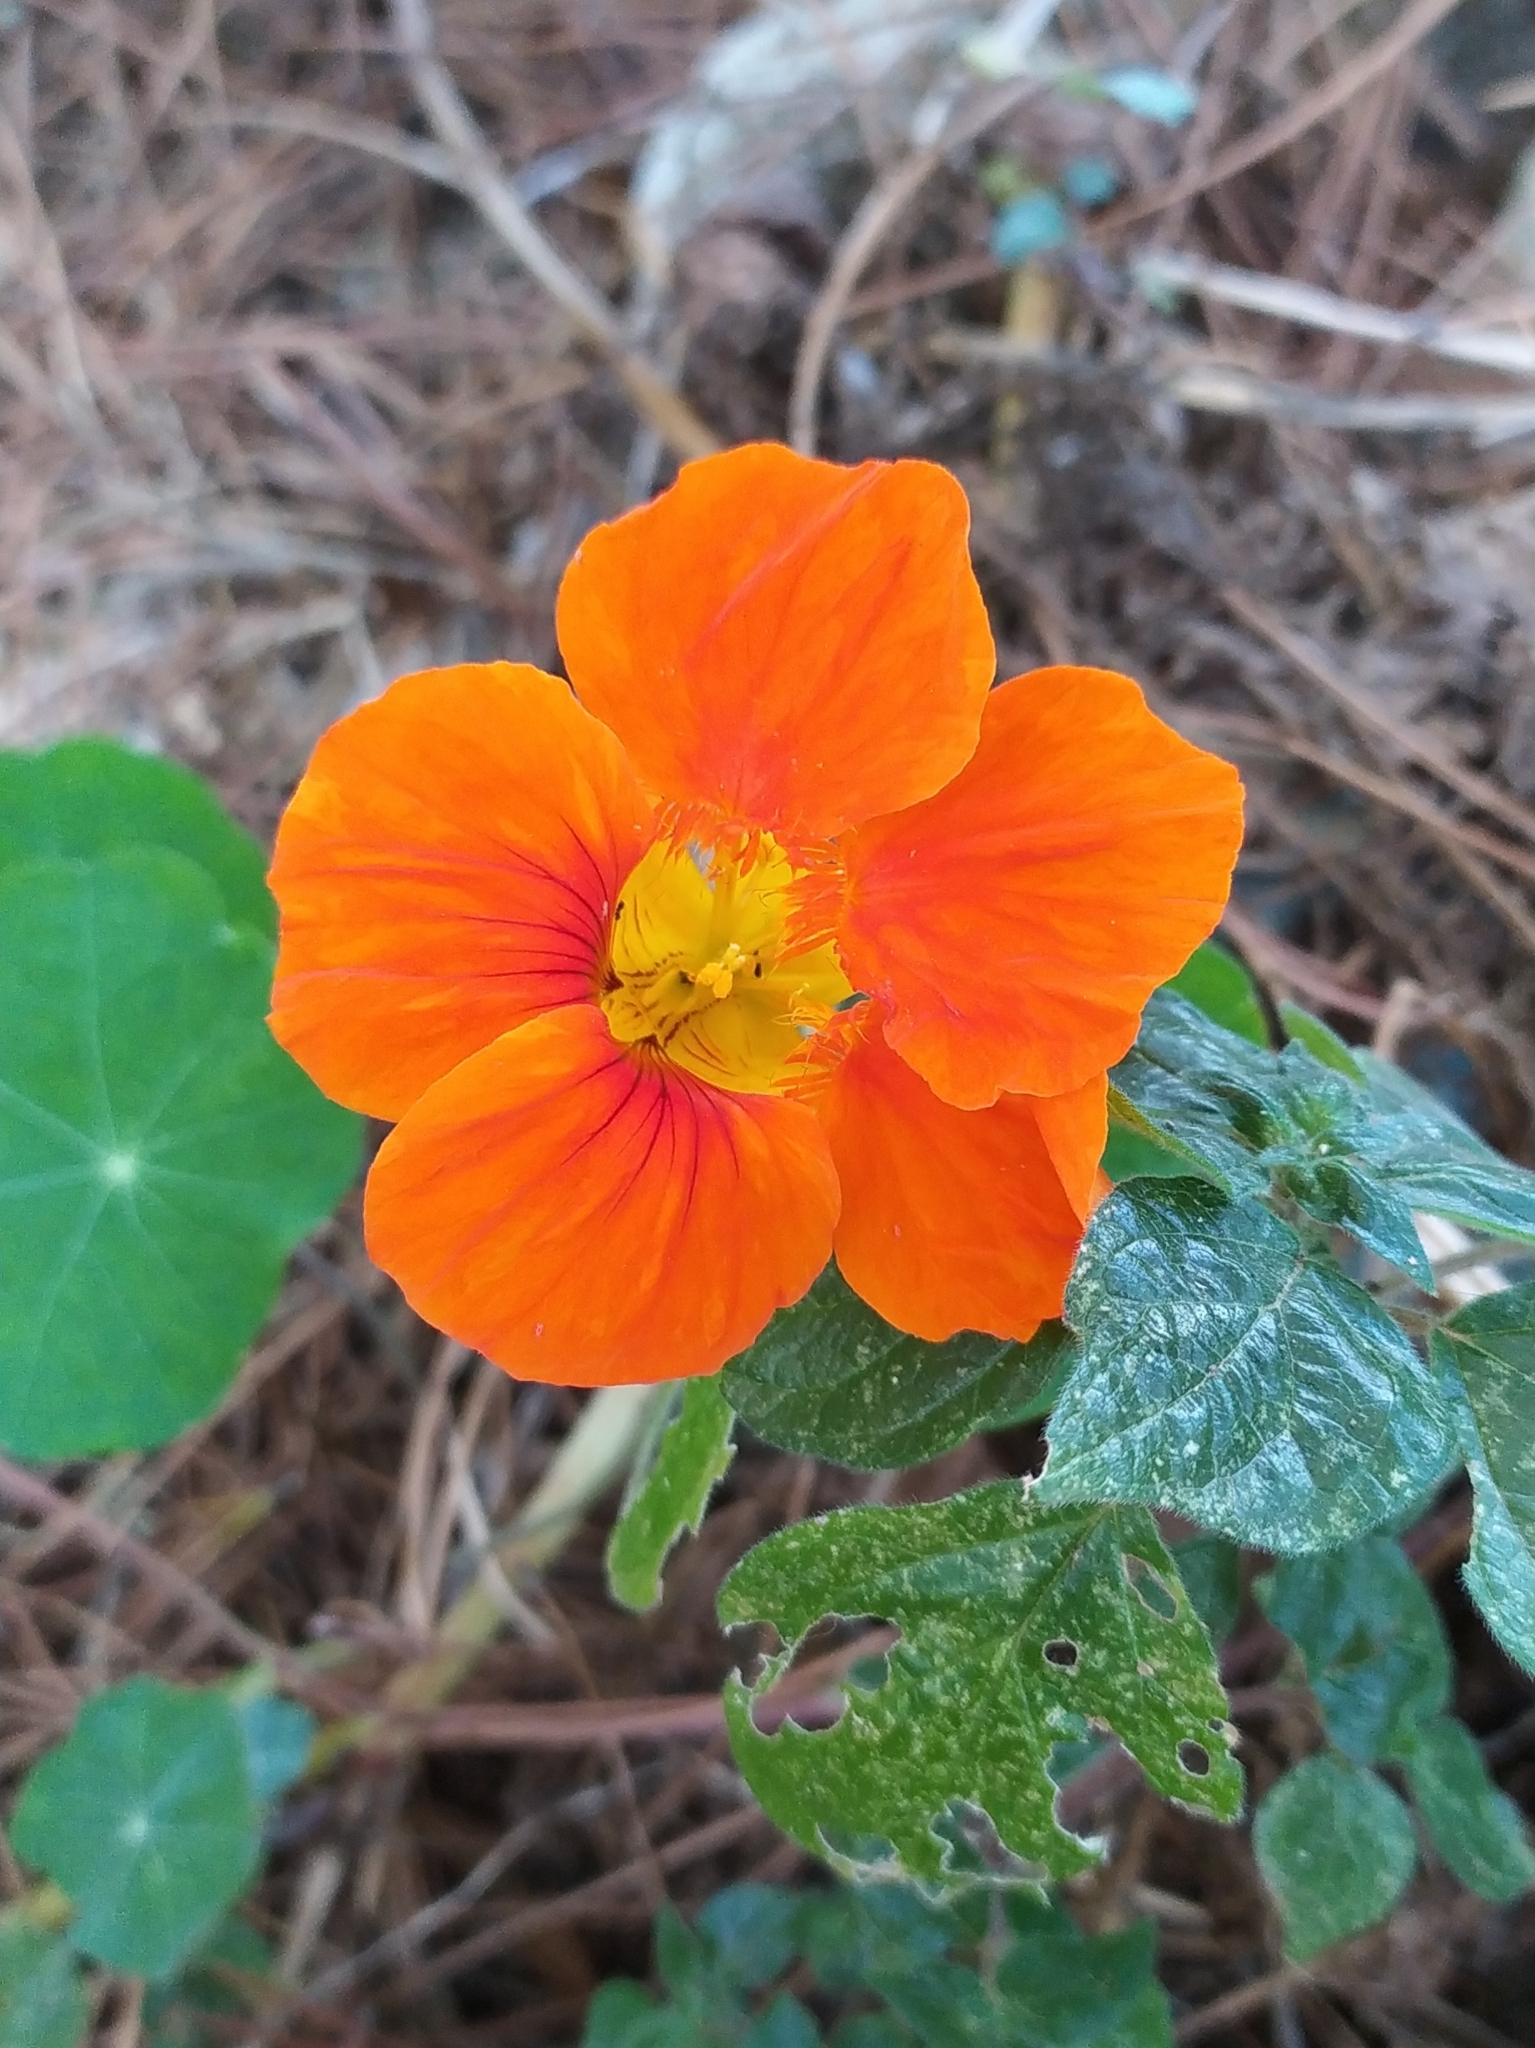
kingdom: Plantae
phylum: Tracheophyta
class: Magnoliopsida
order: Brassicales
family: Tropaeolaceae
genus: Tropaeolum
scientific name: Tropaeolum majus
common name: Nasturtium
